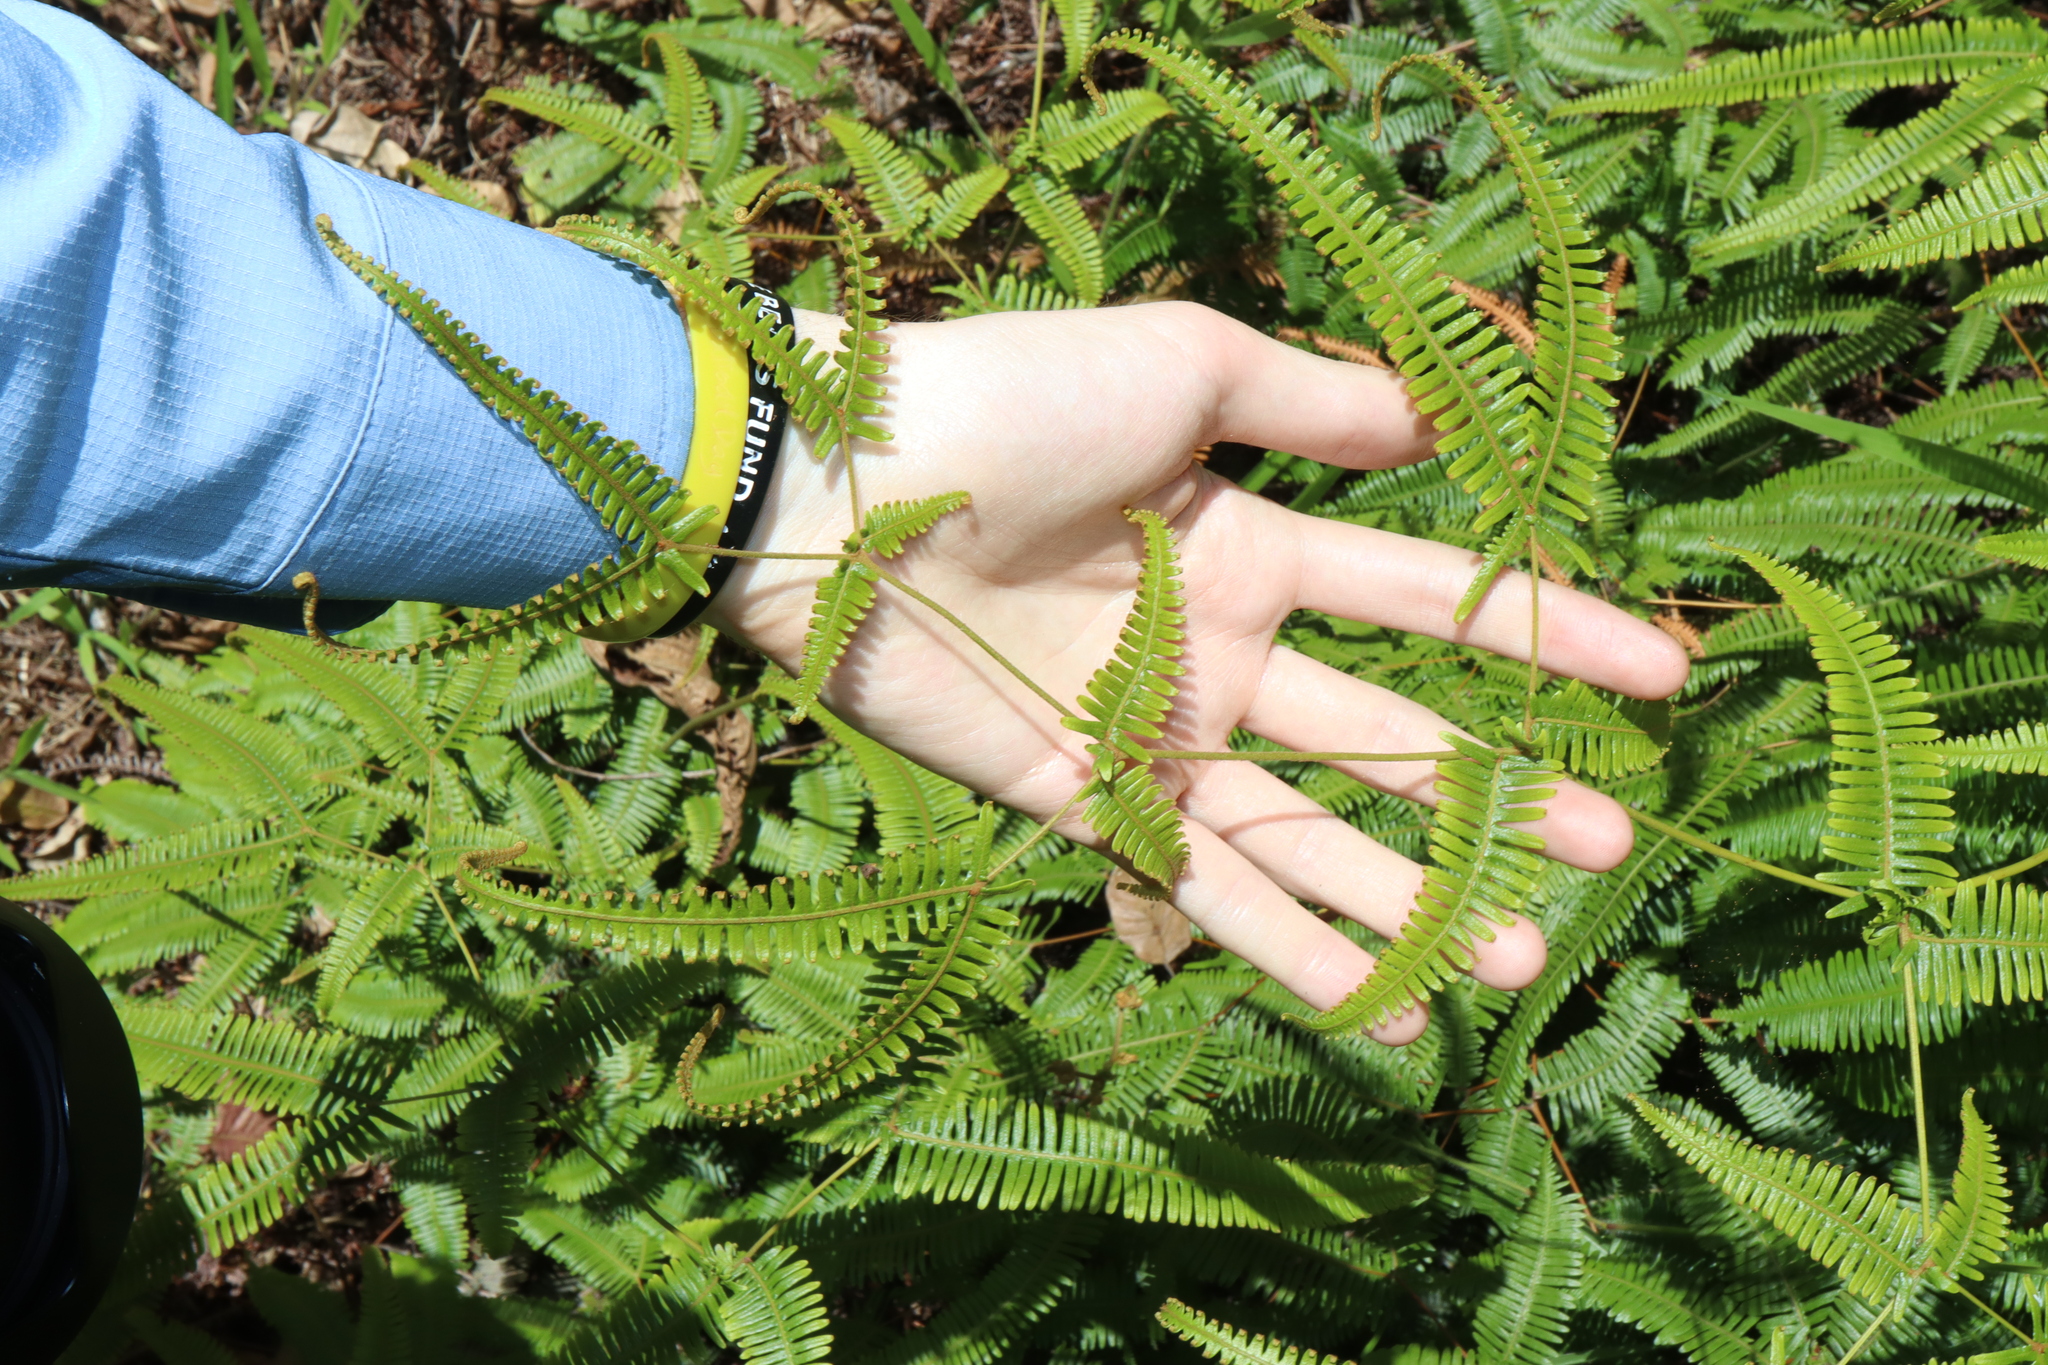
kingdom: Plantae
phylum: Tracheophyta
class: Polypodiopsida
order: Gleicheniales
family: Gleicheniaceae
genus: Dicranopteris
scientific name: Dicranopteris linearis
